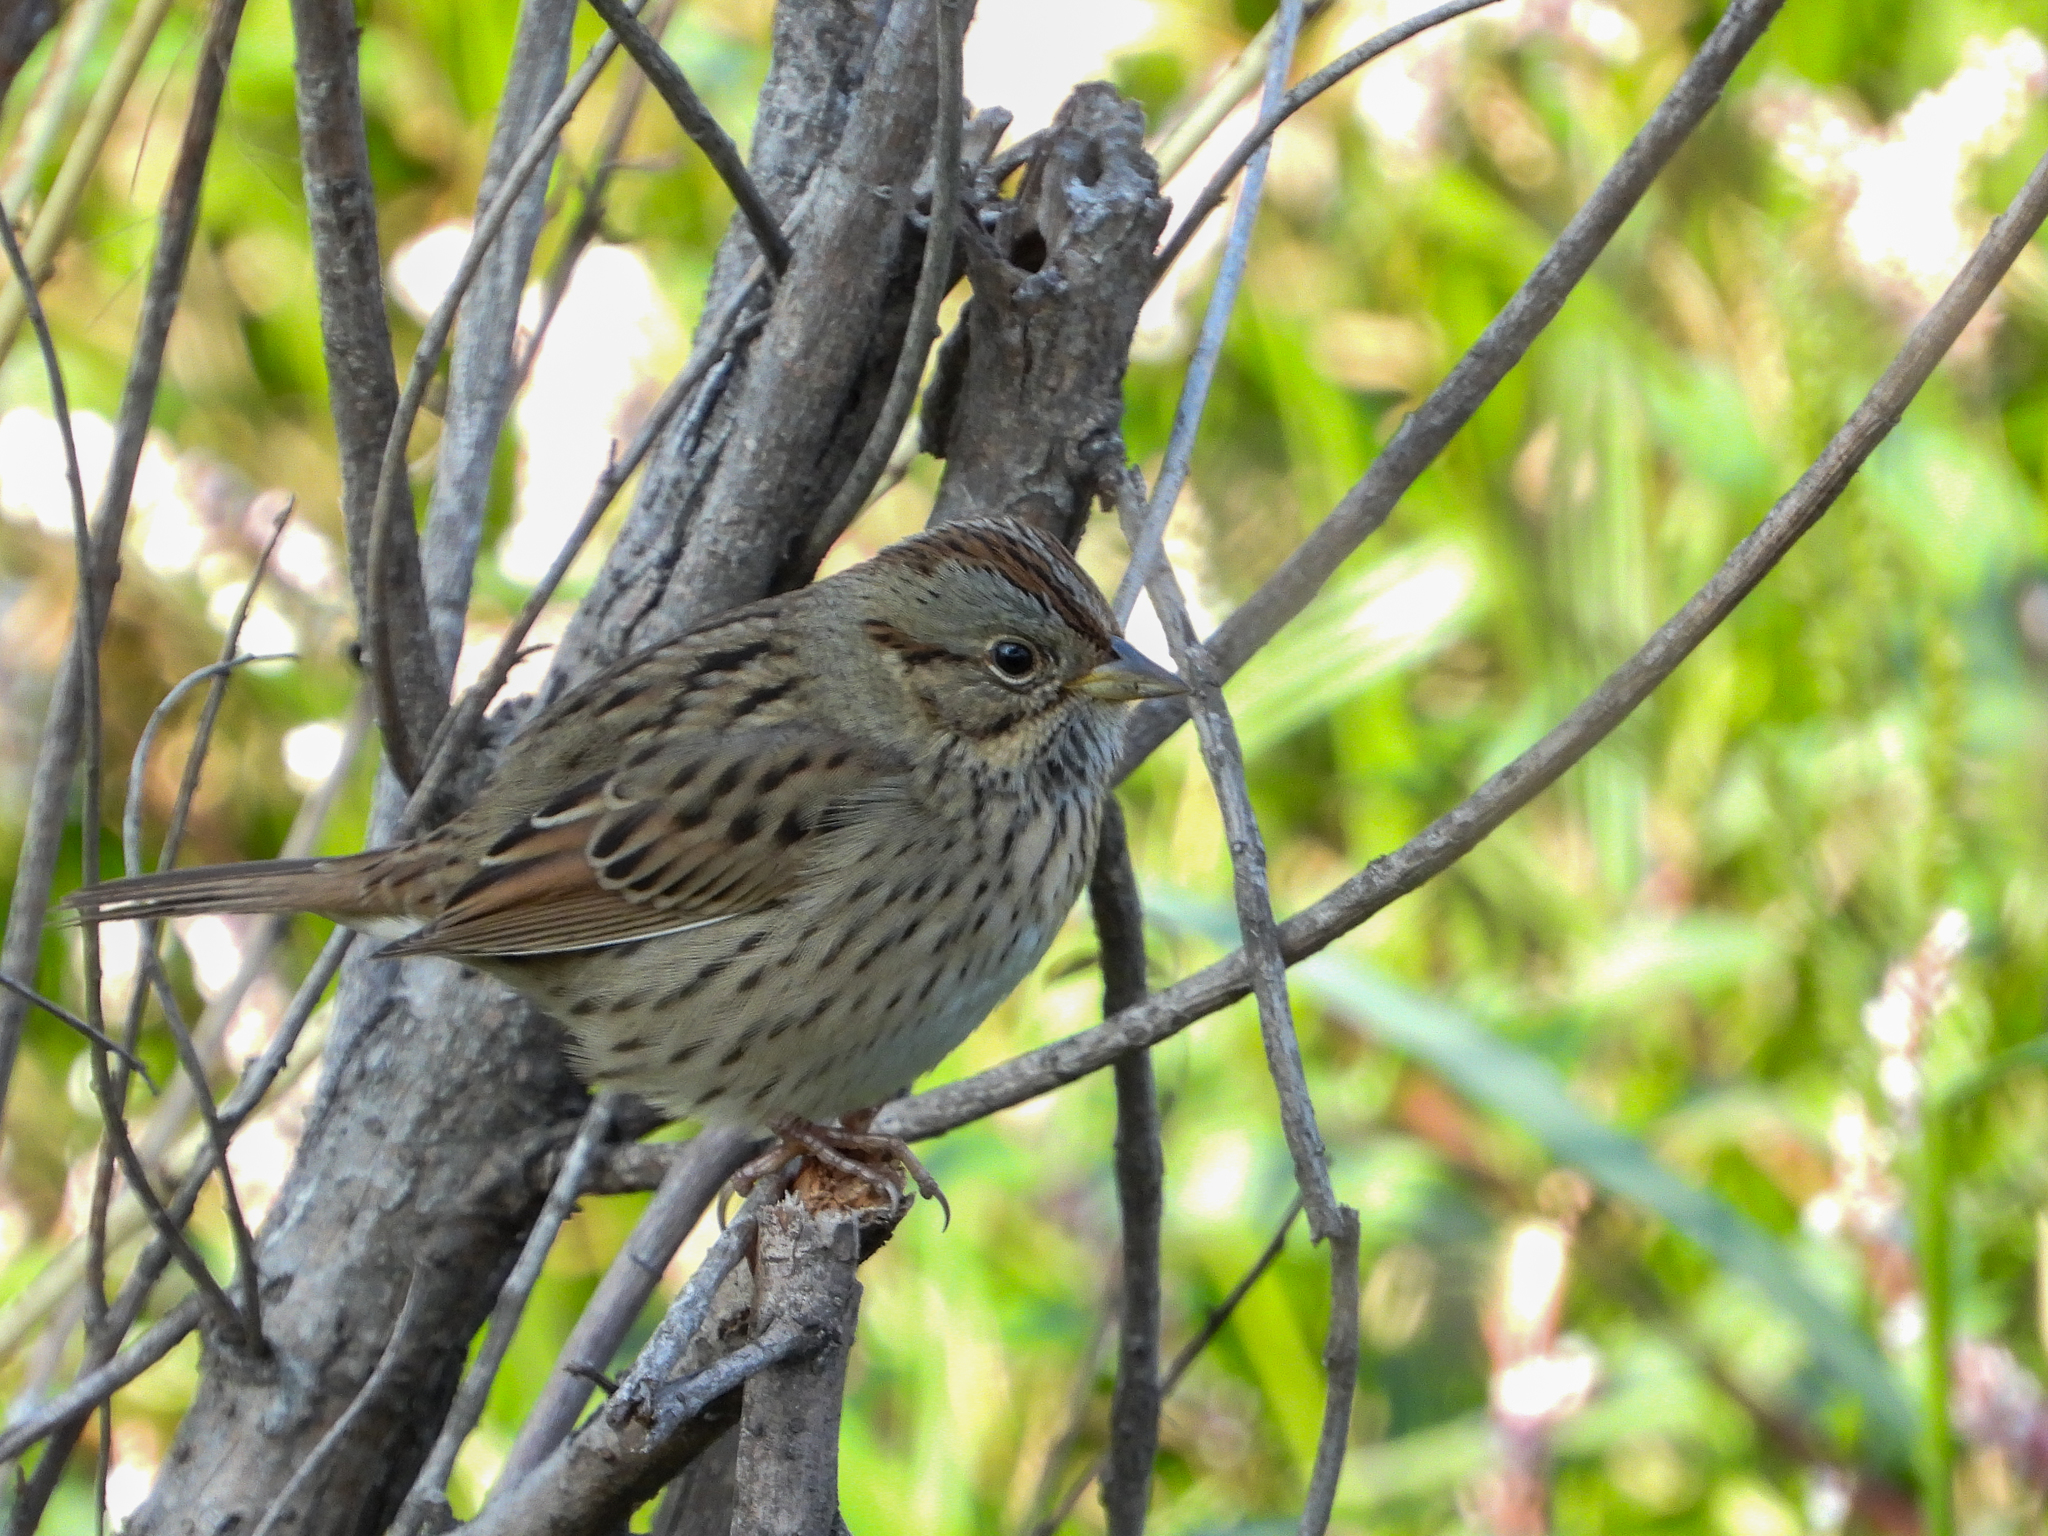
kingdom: Animalia
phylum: Chordata
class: Aves
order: Passeriformes
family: Passerellidae
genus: Melospiza
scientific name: Melospiza lincolnii
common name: Lincoln's sparrow
